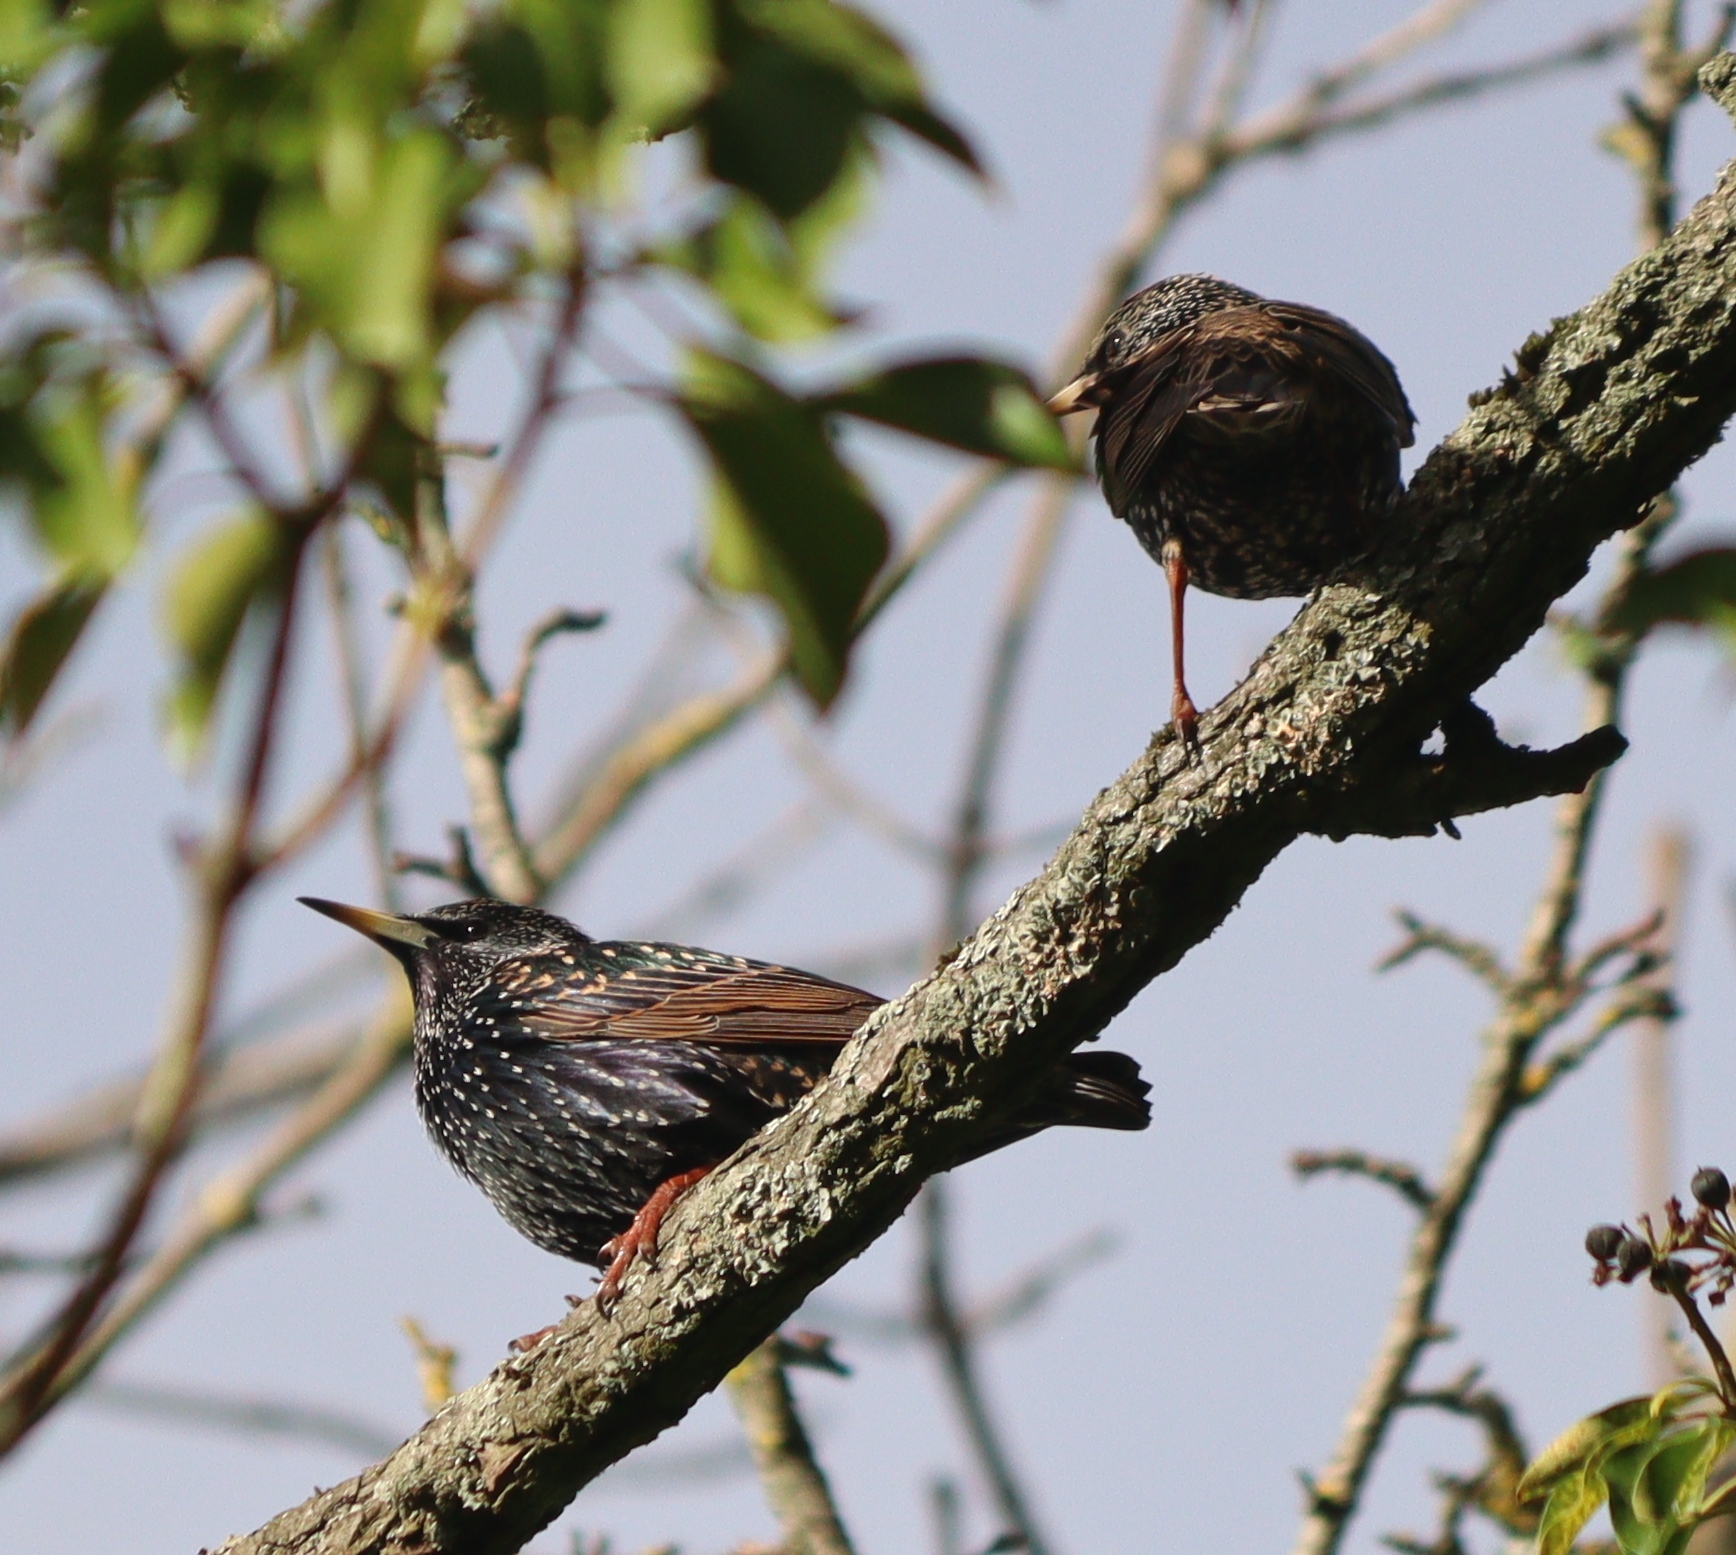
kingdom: Animalia
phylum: Chordata
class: Aves
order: Passeriformes
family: Sturnidae
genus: Sturnus
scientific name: Sturnus vulgaris
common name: Common starling
